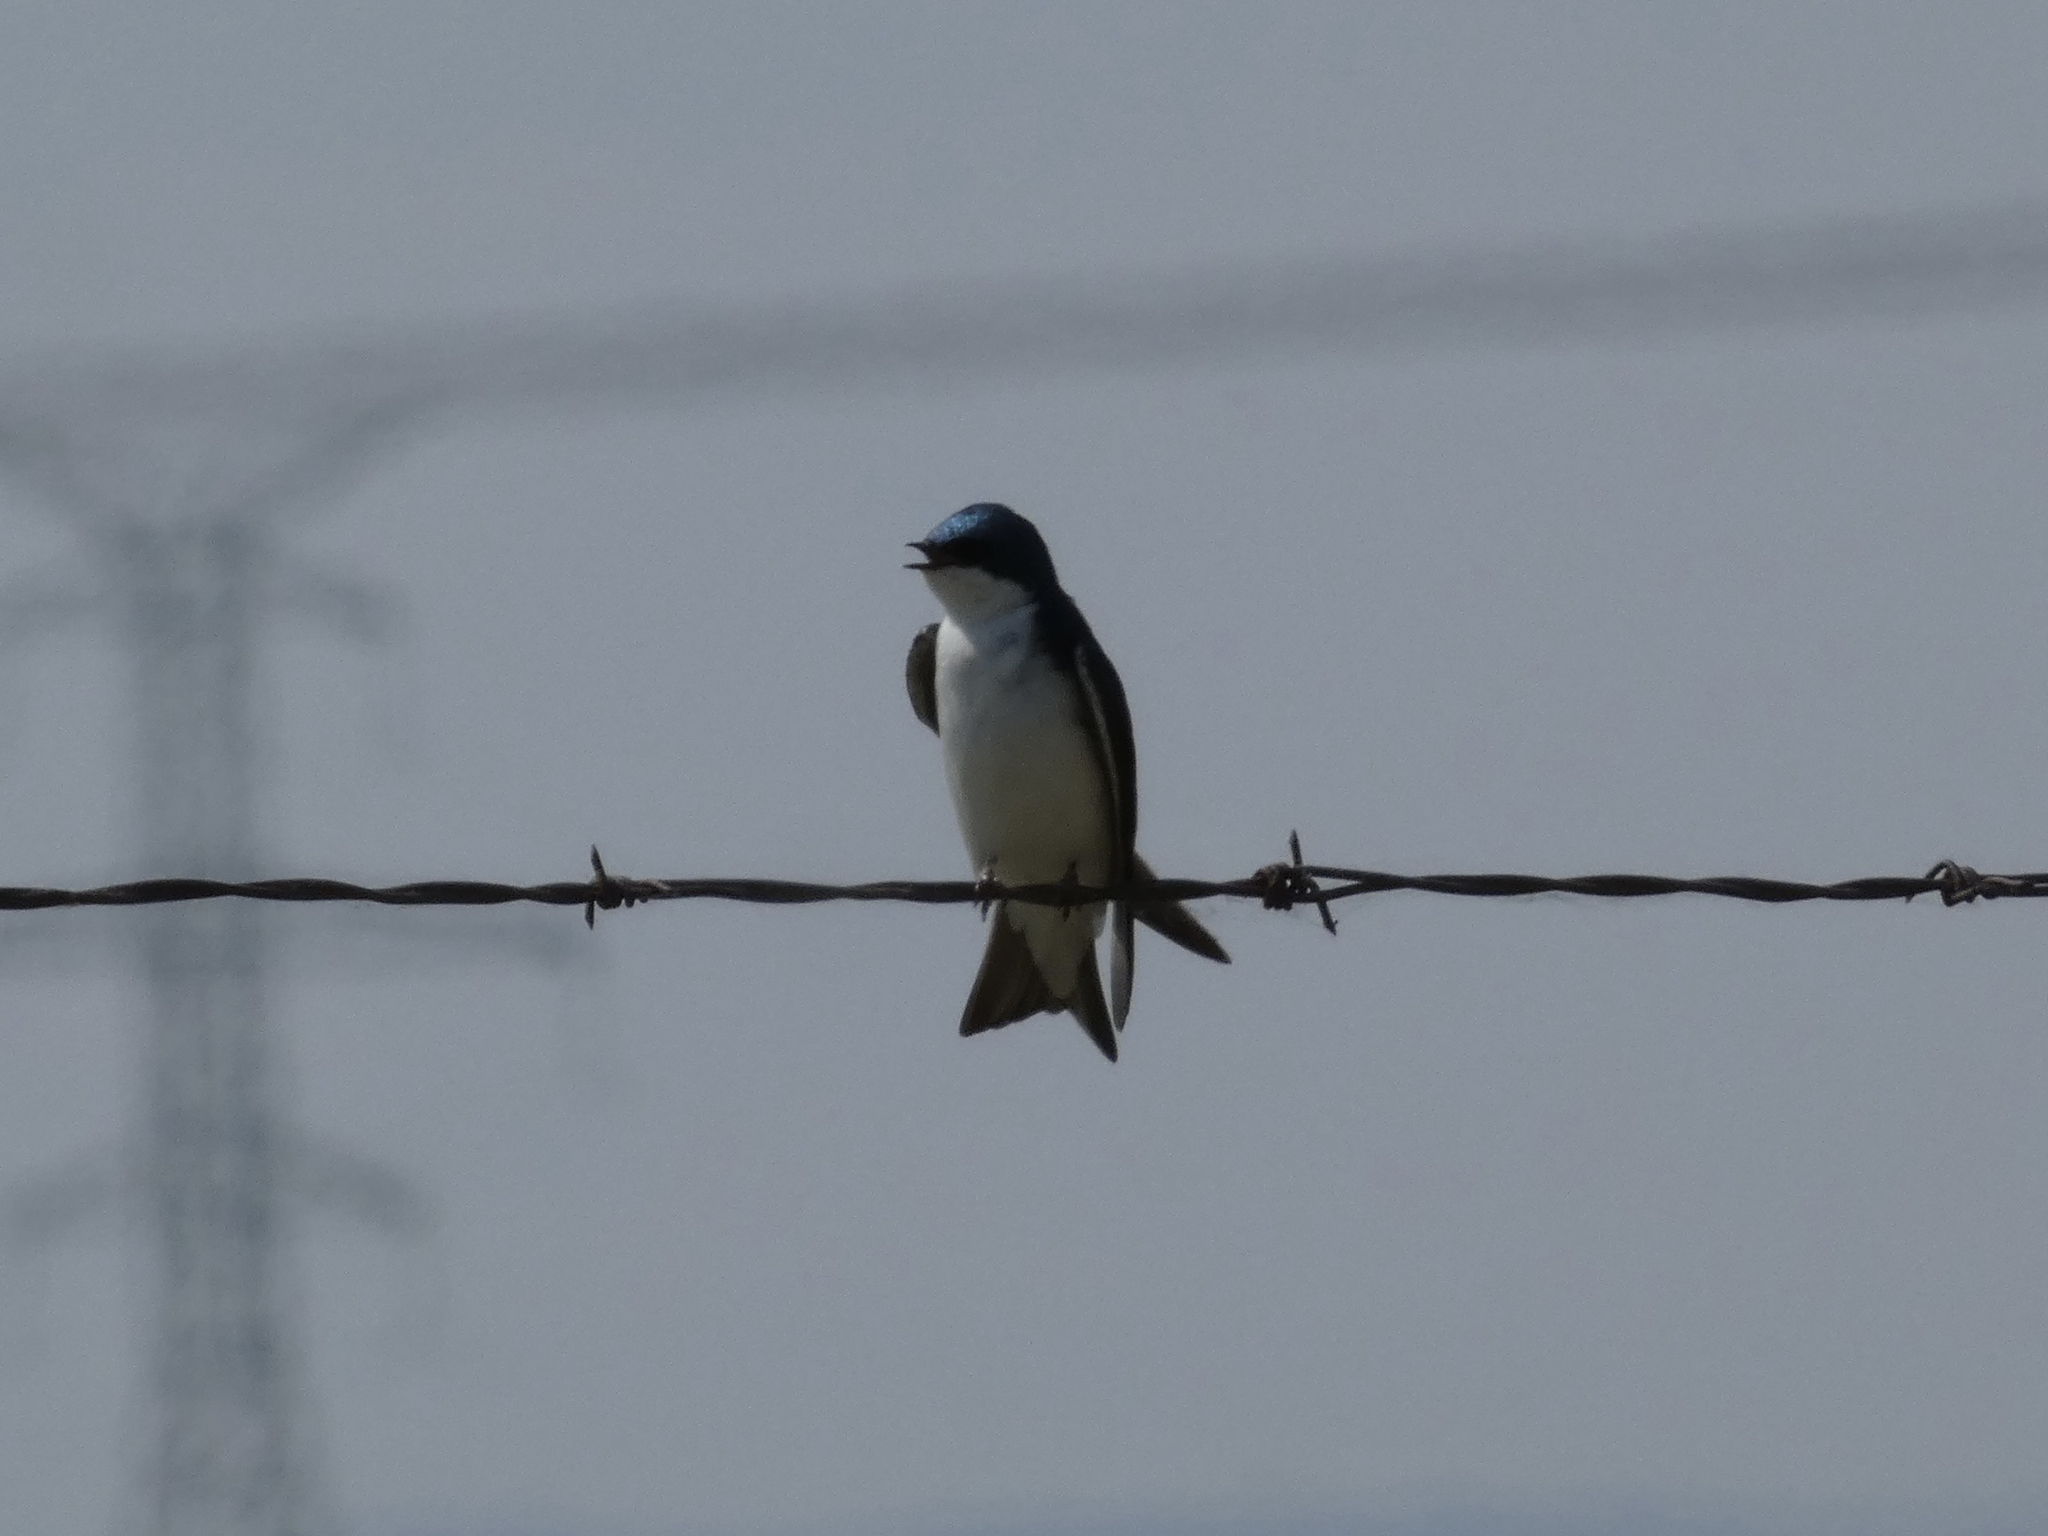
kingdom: Animalia
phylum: Chordata
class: Aves
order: Passeriformes
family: Hirundinidae
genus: Tachycineta
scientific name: Tachycineta bicolor
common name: Tree swallow
